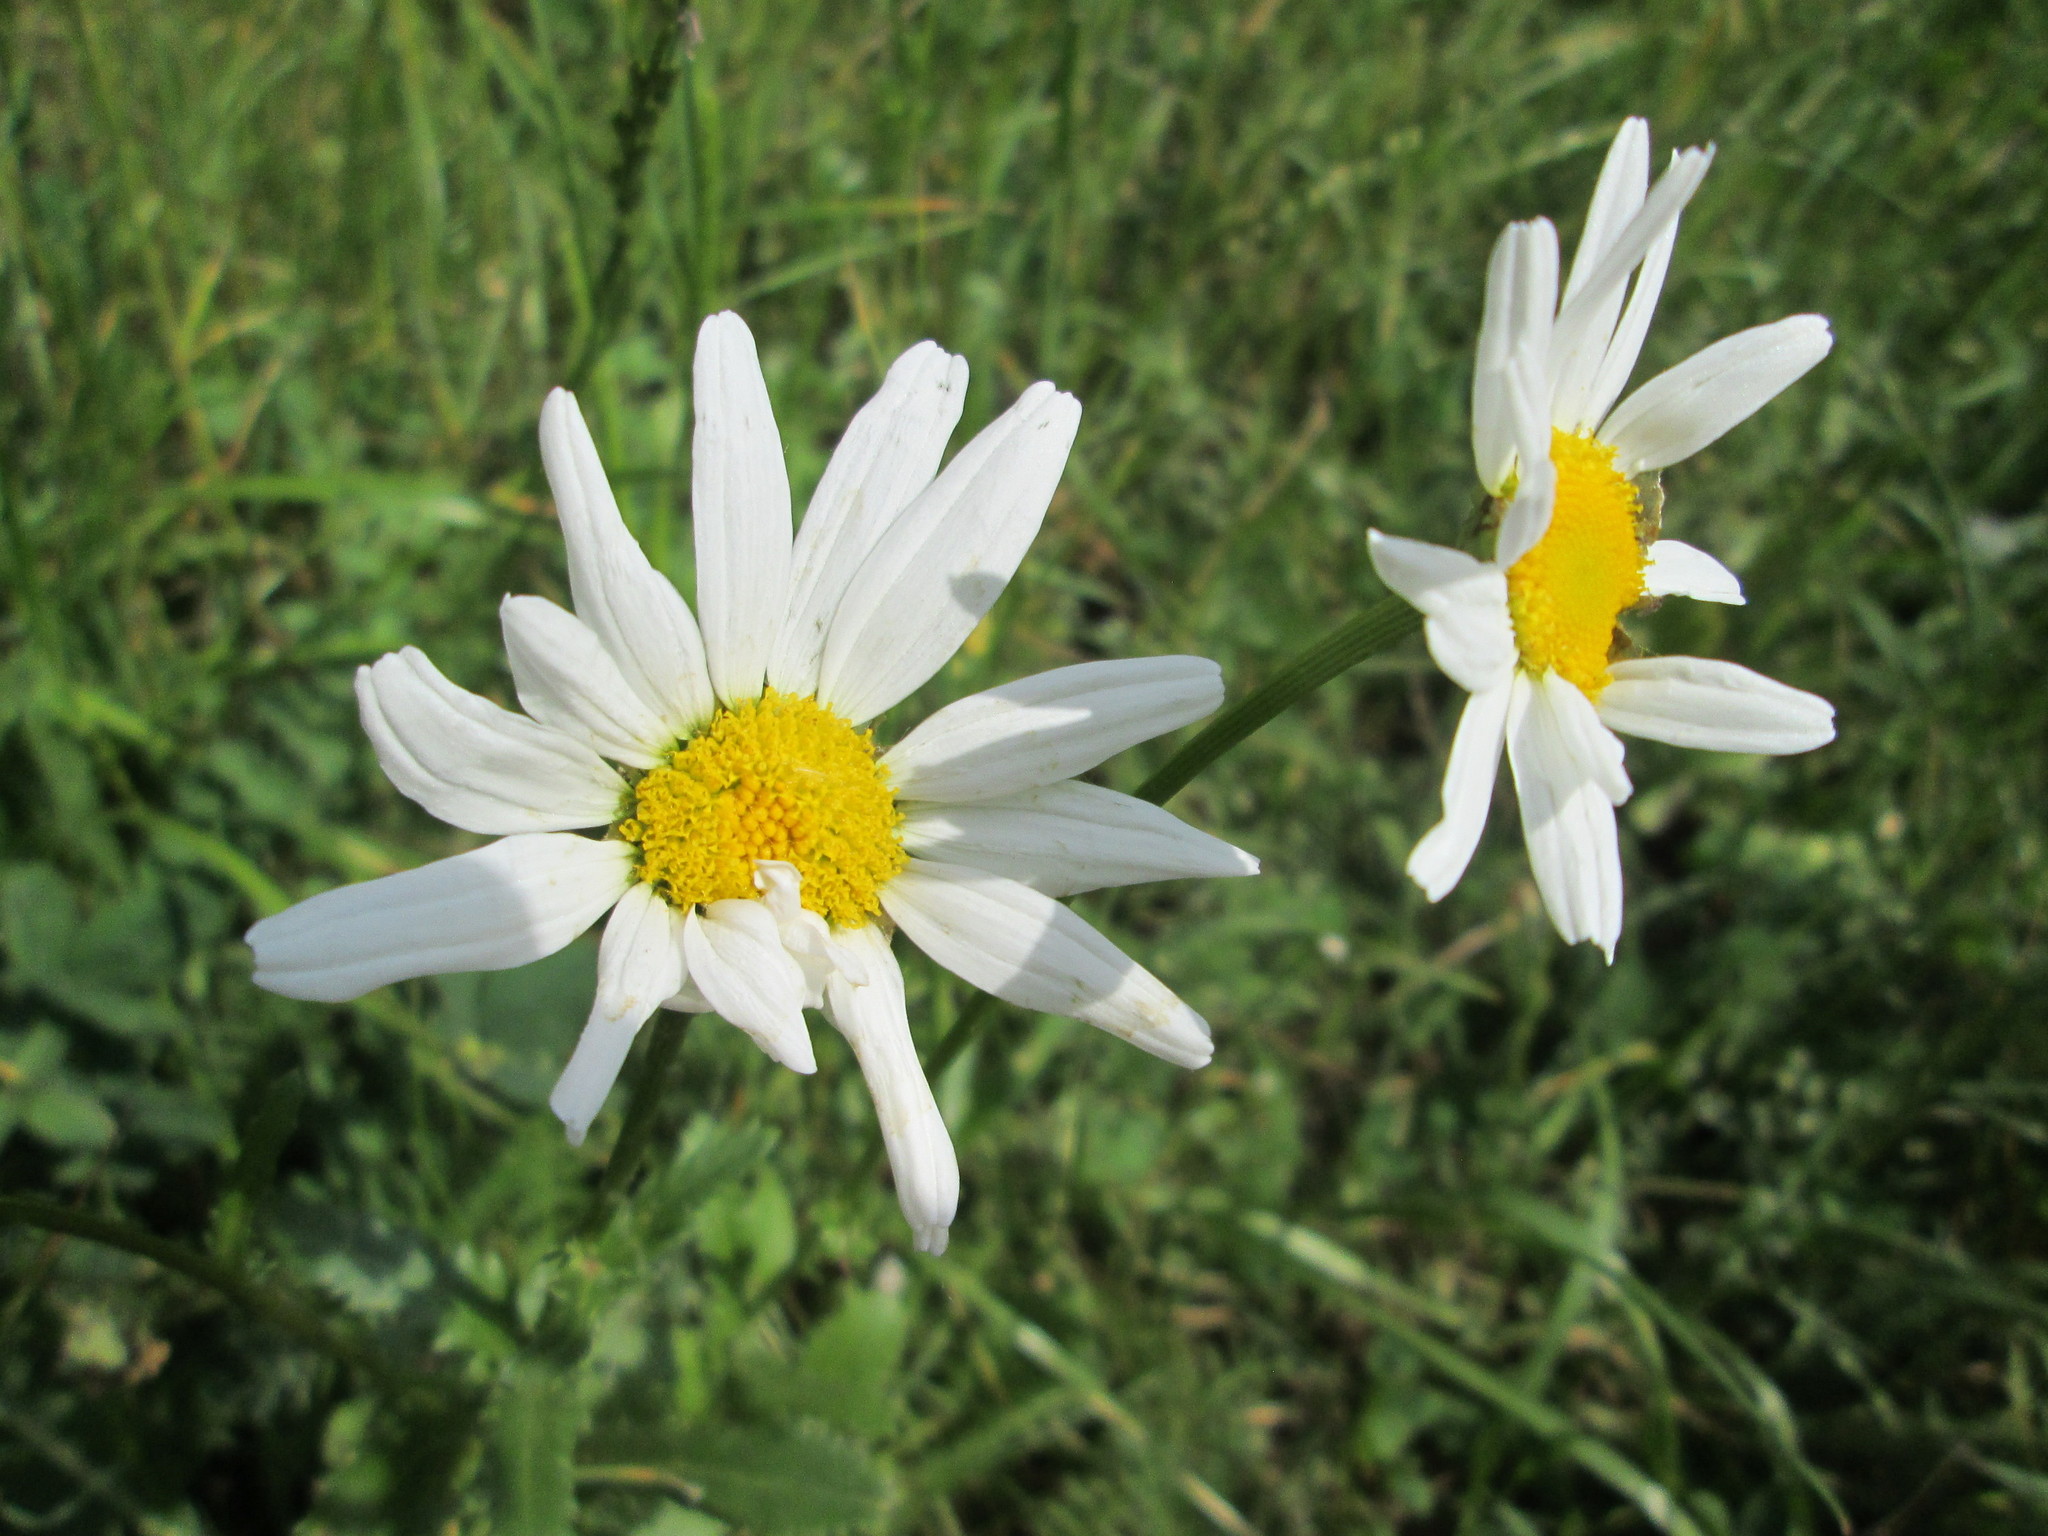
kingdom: Plantae
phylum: Tracheophyta
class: Magnoliopsida
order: Asterales
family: Asteraceae
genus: Leucanthemum
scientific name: Leucanthemum vulgare
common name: Oxeye daisy
